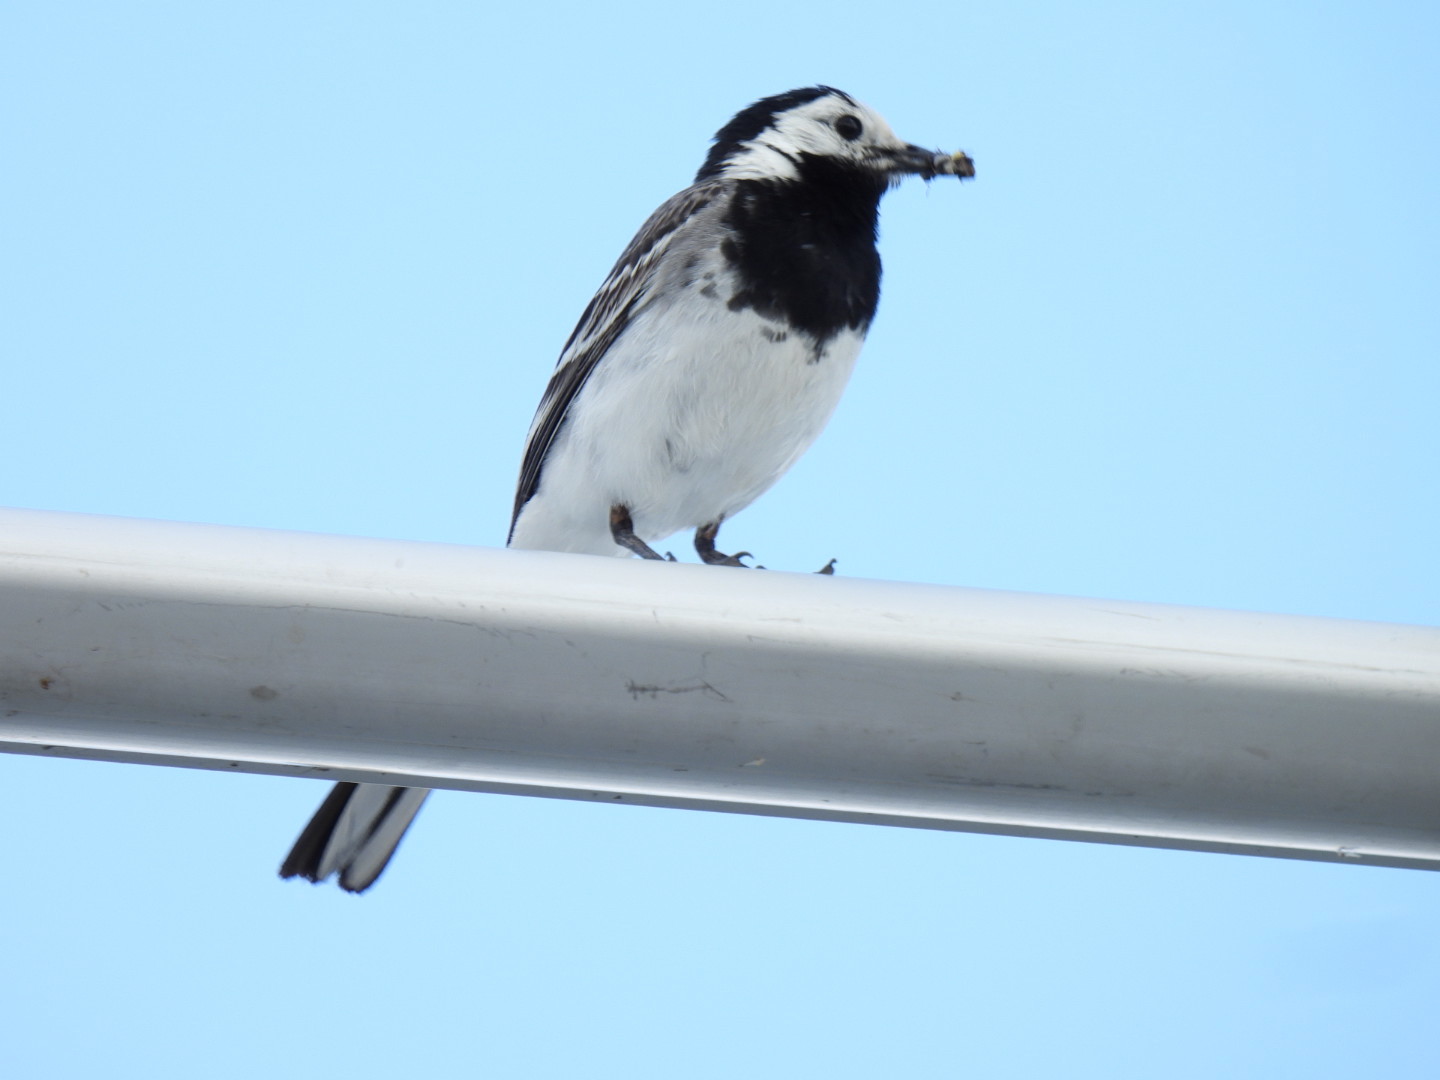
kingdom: Animalia
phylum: Chordata
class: Aves
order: Passeriformes
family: Motacillidae
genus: Motacilla
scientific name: Motacilla alba
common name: White wagtail
